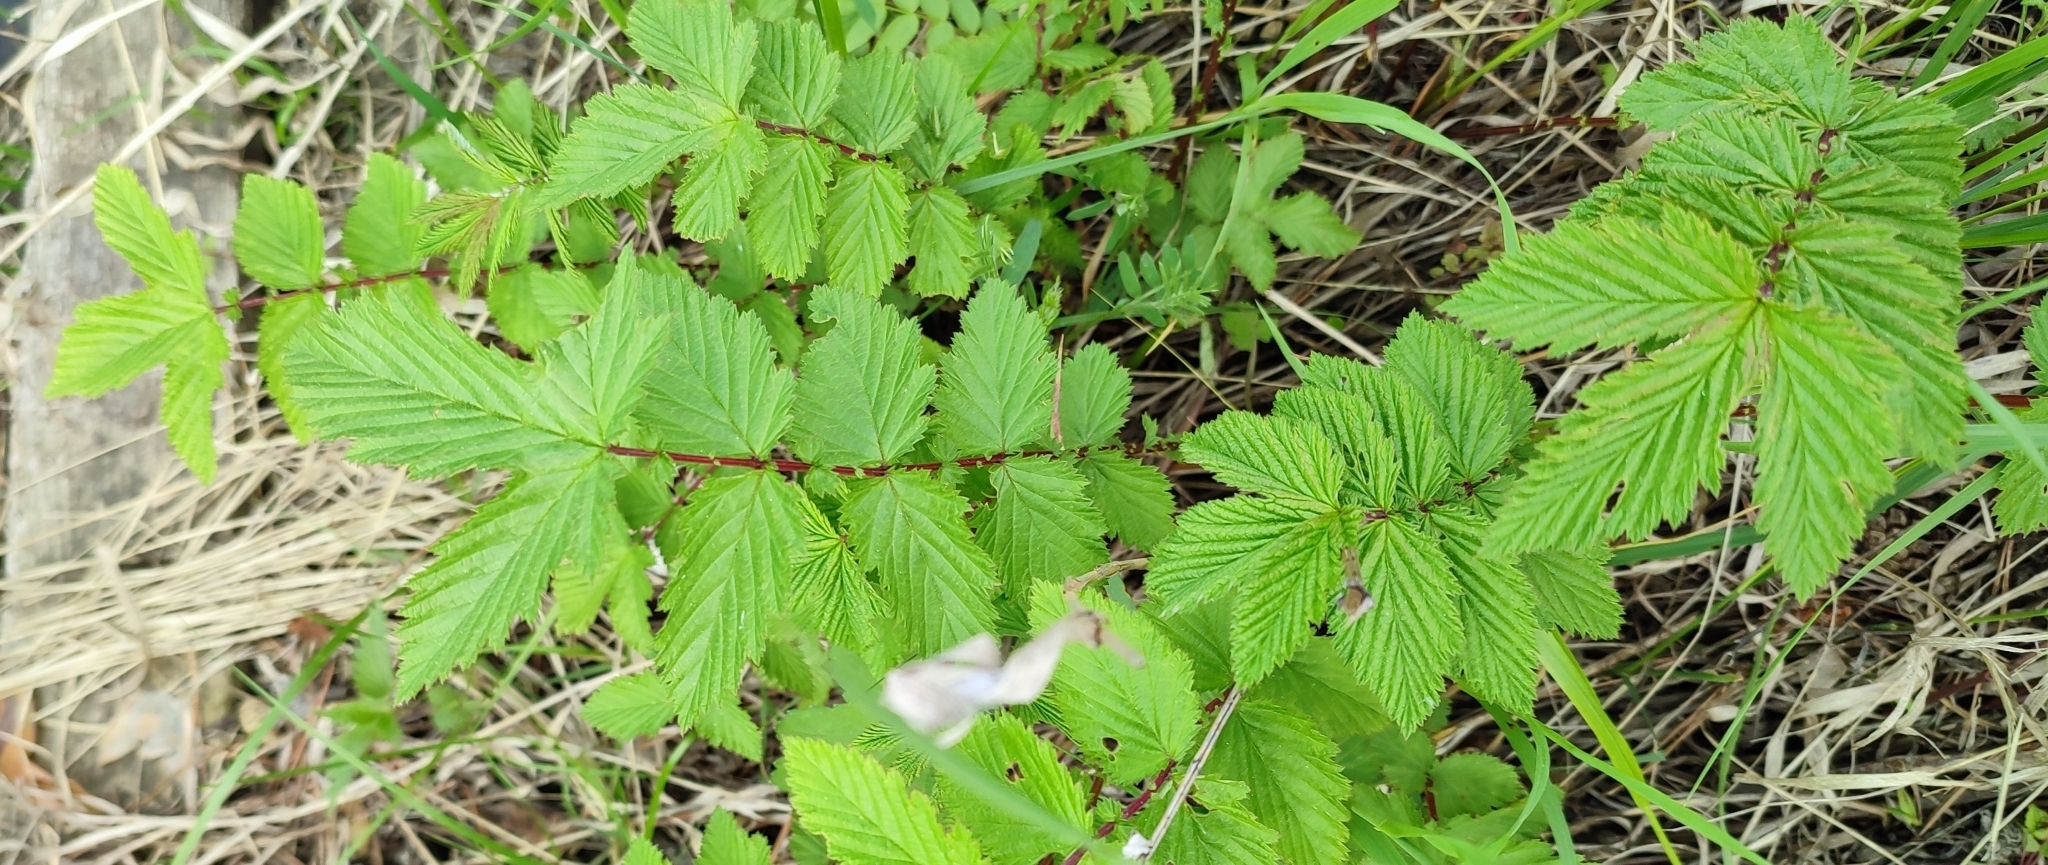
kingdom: Plantae
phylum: Tracheophyta
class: Magnoliopsida
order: Rosales
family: Rosaceae
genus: Filipendula
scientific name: Filipendula ulmaria
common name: Meadowsweet
